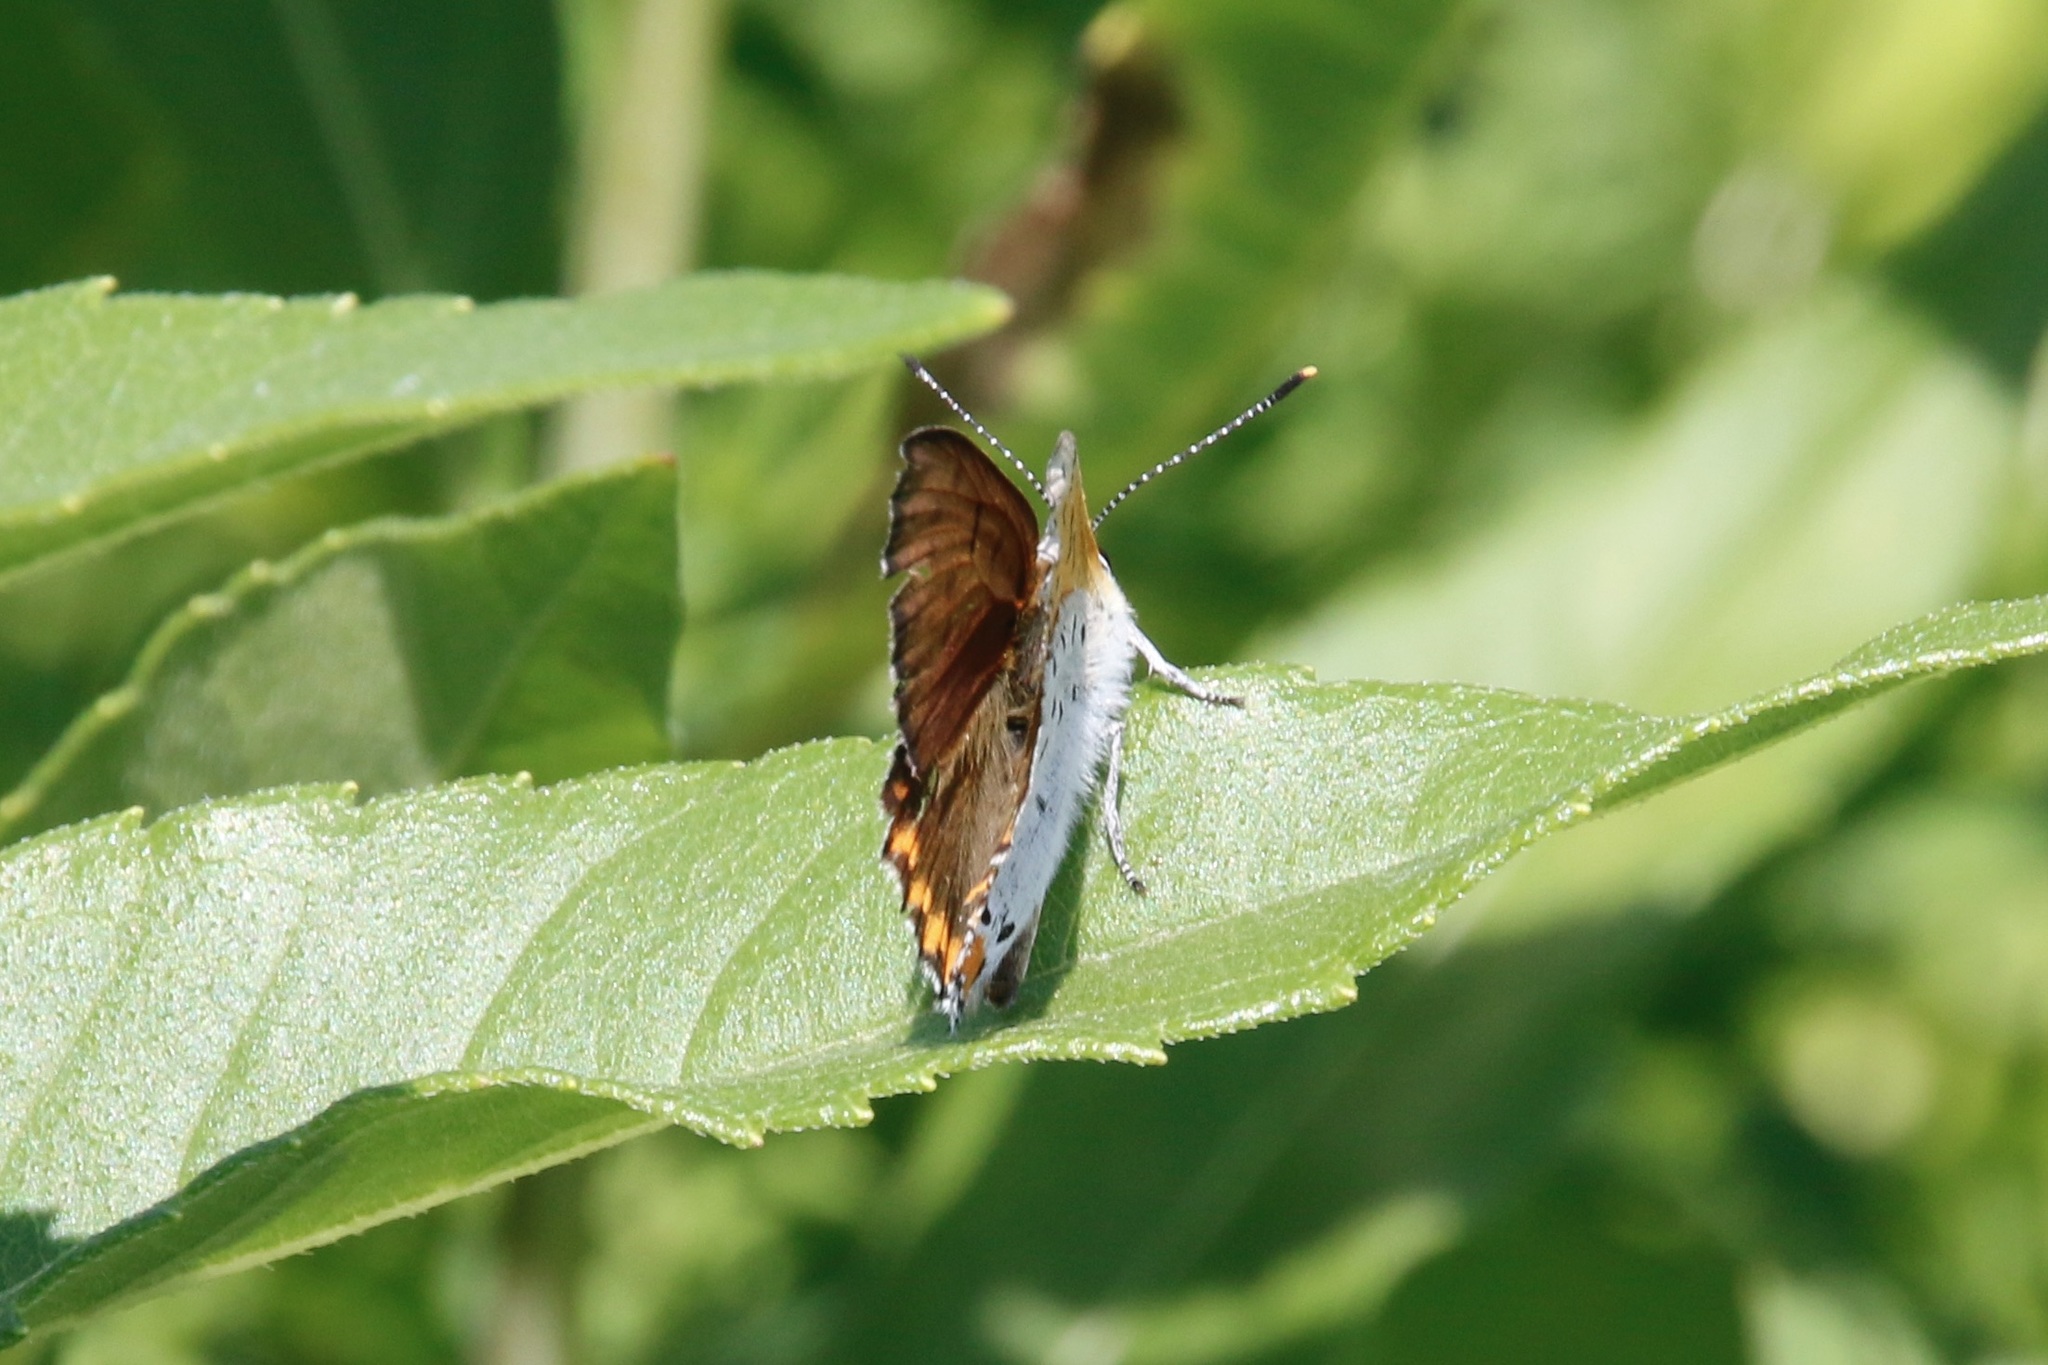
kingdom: Animalia
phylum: Arthropoda
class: Insecta
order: Lepidoptera
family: Lycaenidae
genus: Tharsalea
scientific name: Tharsalea hyllus
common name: Bronze copper
